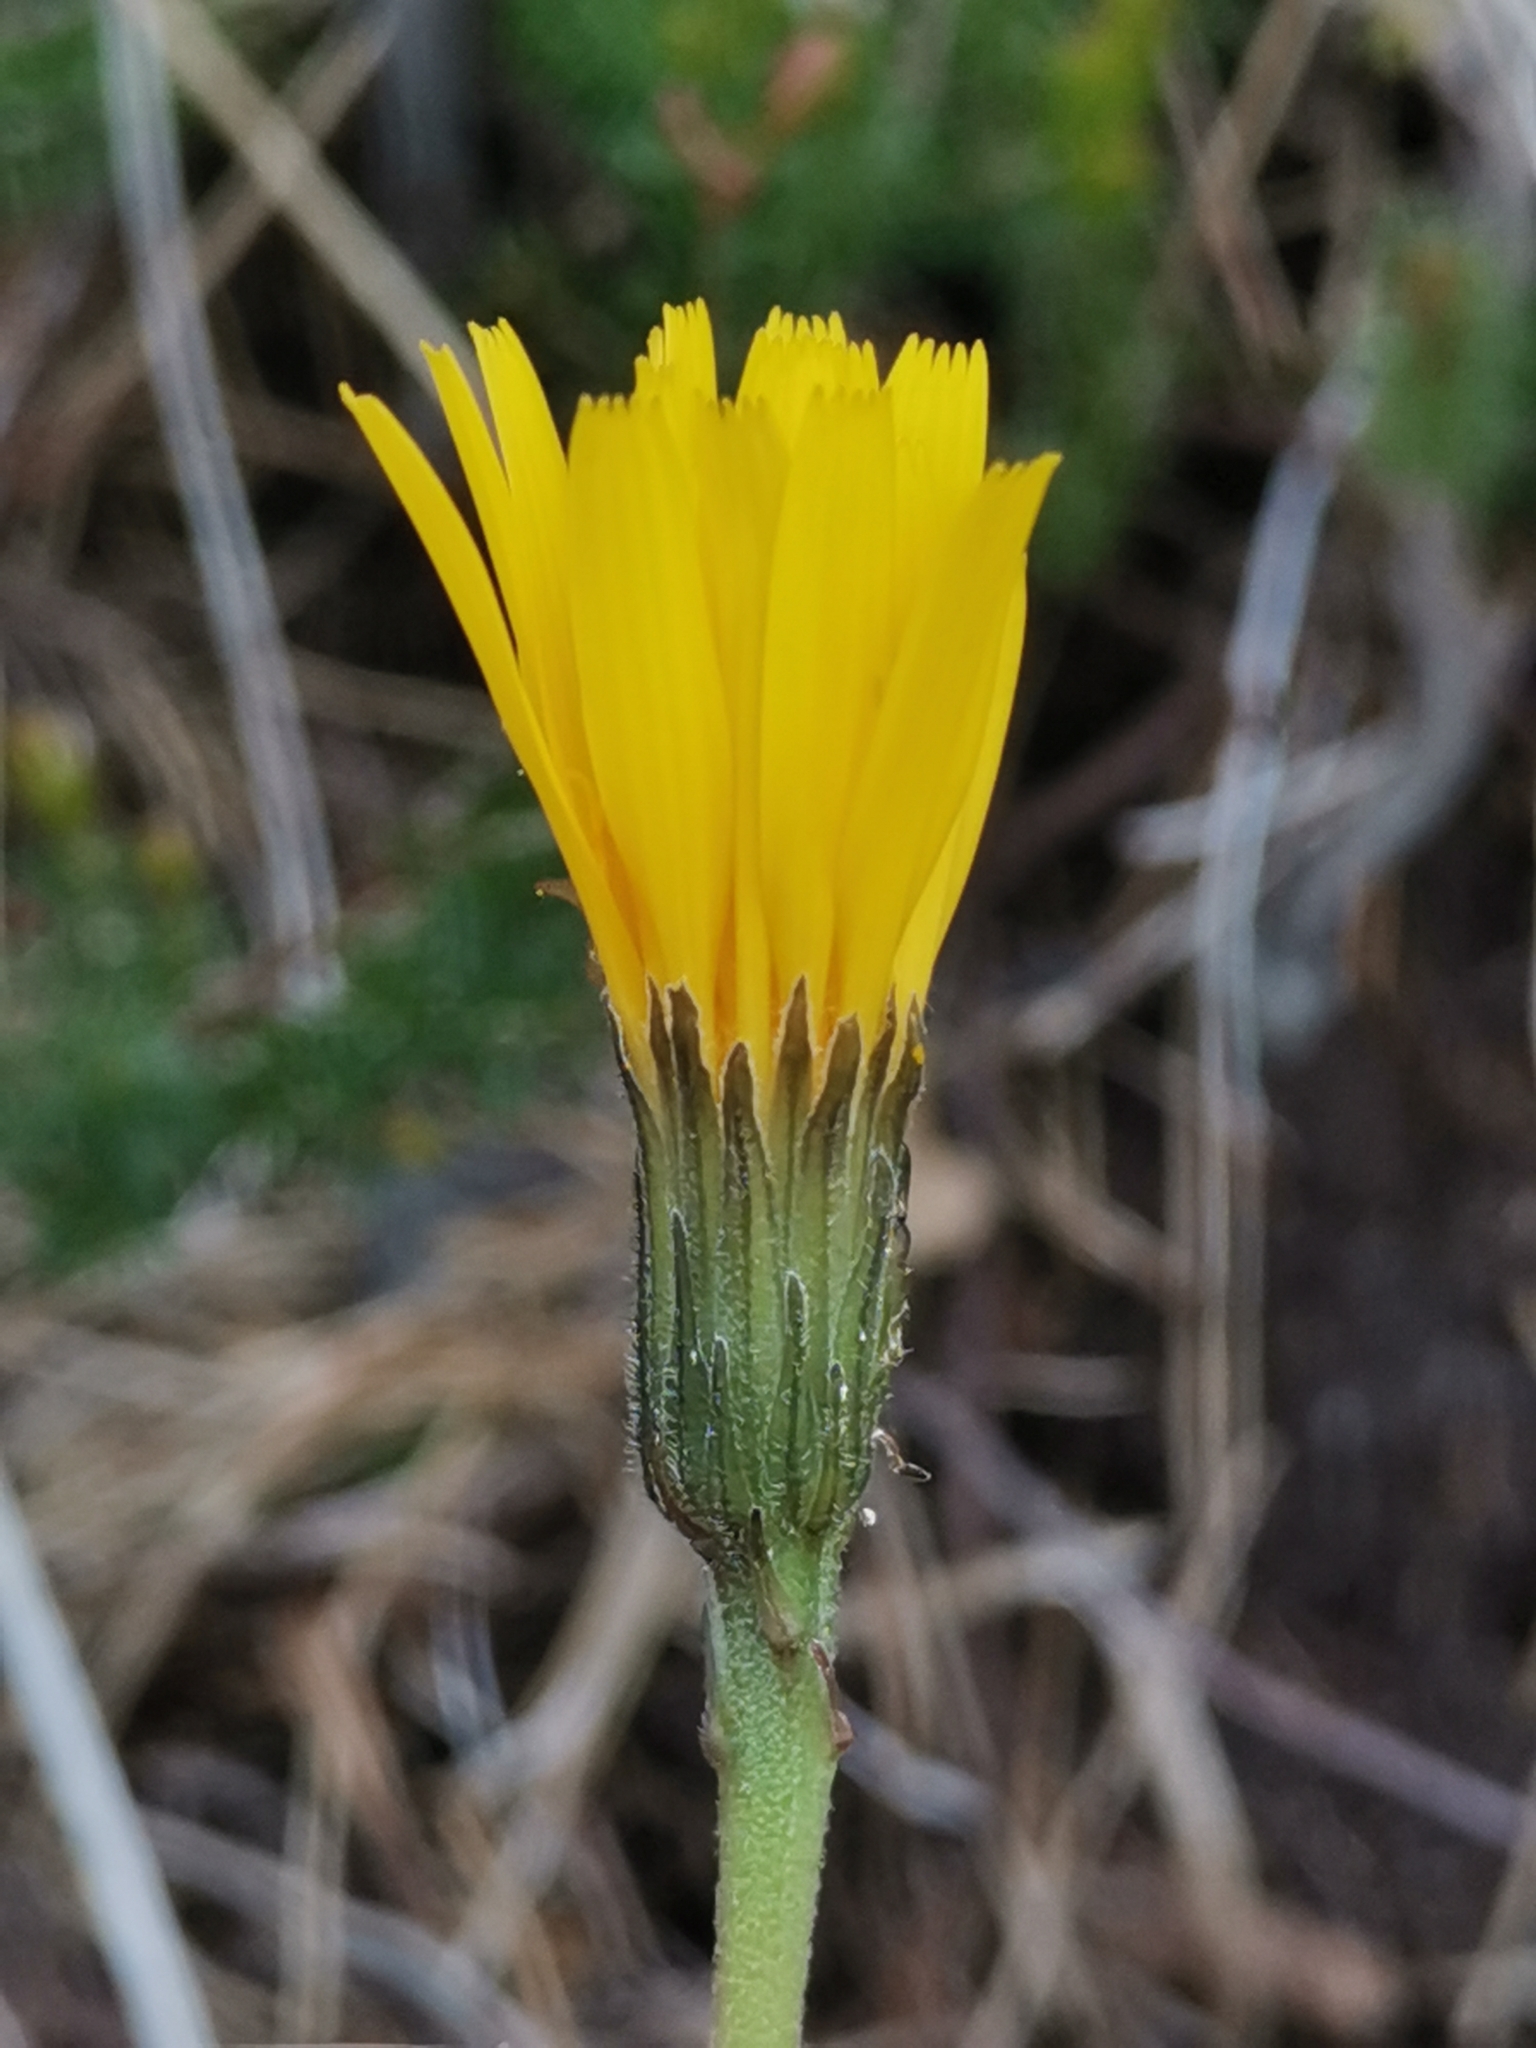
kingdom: Plantae
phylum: Tracheophyta
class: Magnoliopsida
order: Asterales
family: Asteraceae
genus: Leontodon
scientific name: Leontodon incanus
